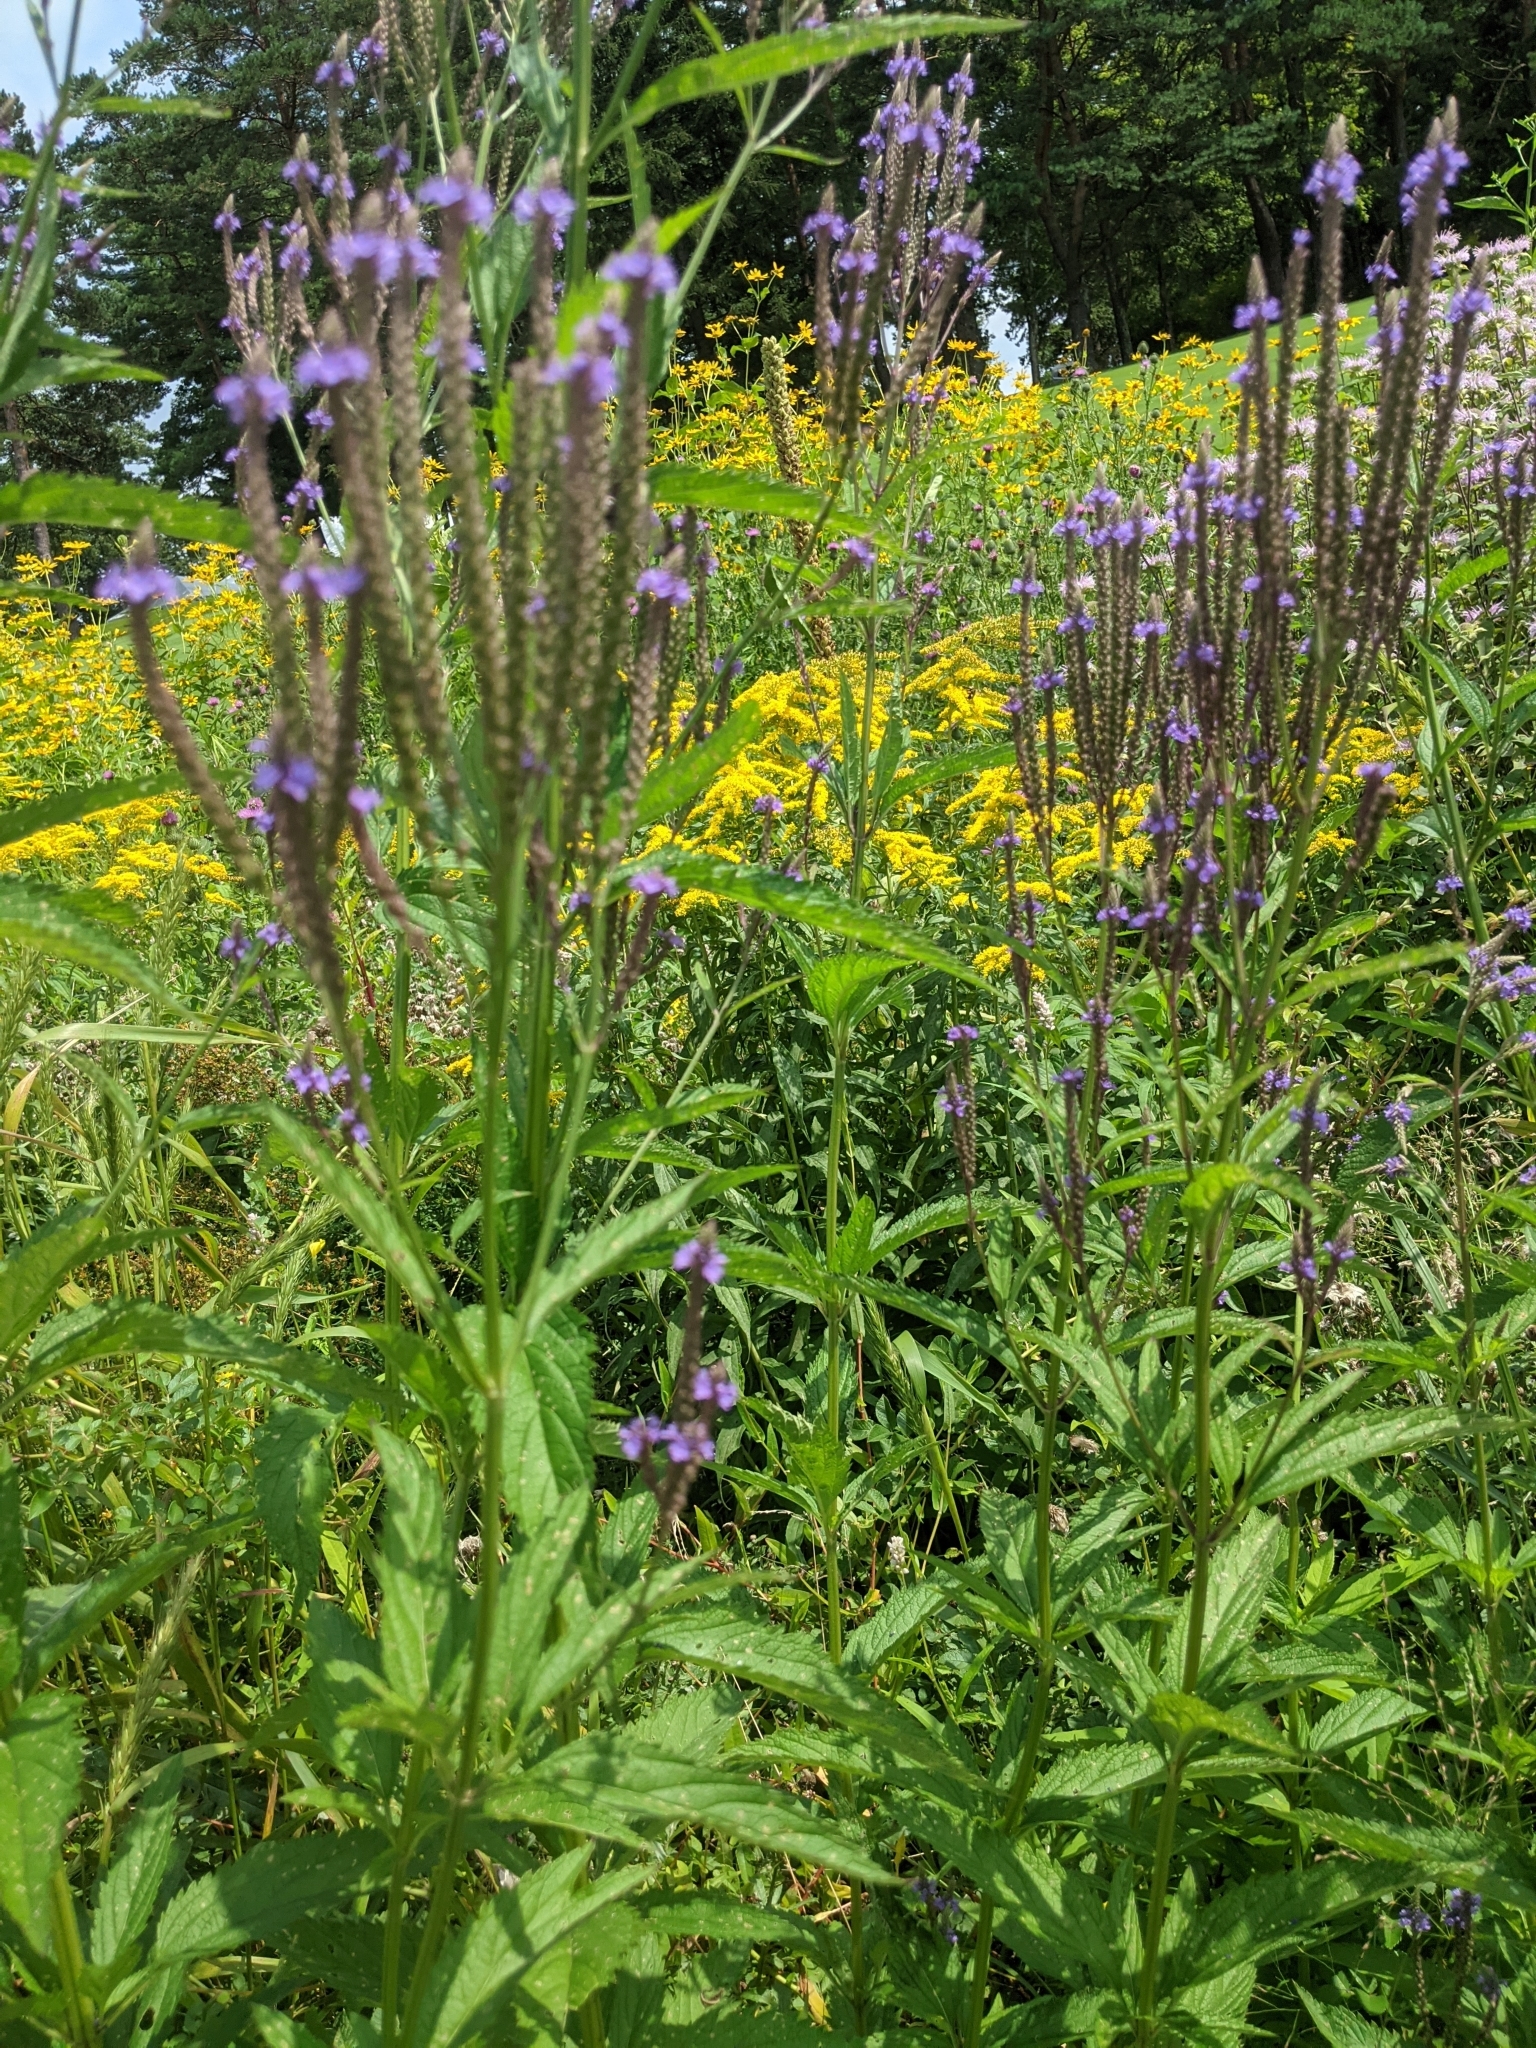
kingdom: Plantae
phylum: Tracheophyta
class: Magnoliopsida
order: Lamiales
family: Verbenaceae
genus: Verbena
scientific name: Verbena hastata
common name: American blue vervain
